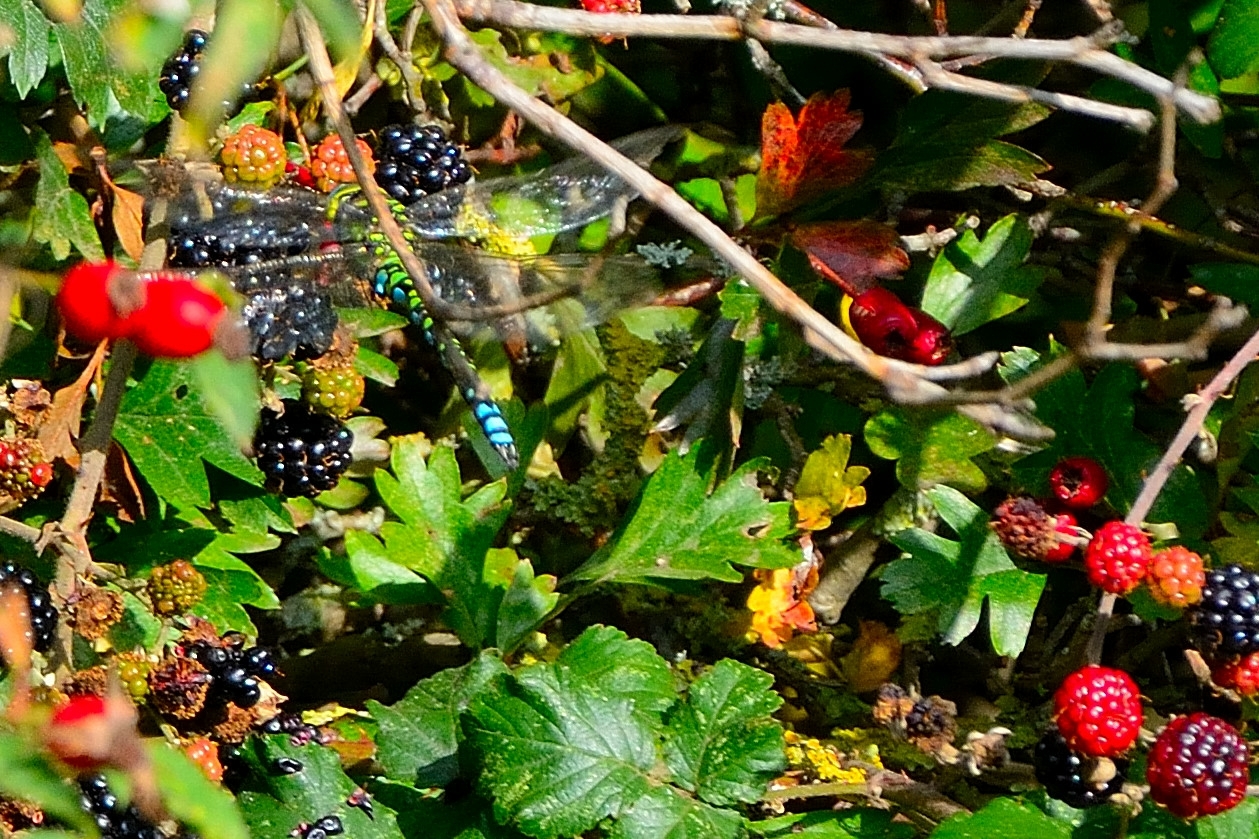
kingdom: Animalia
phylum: Arthropoda
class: Insecta
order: Odonata
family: Aeshnidae
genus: Aeshna
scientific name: Aeshna cyanea
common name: Southern hawker
